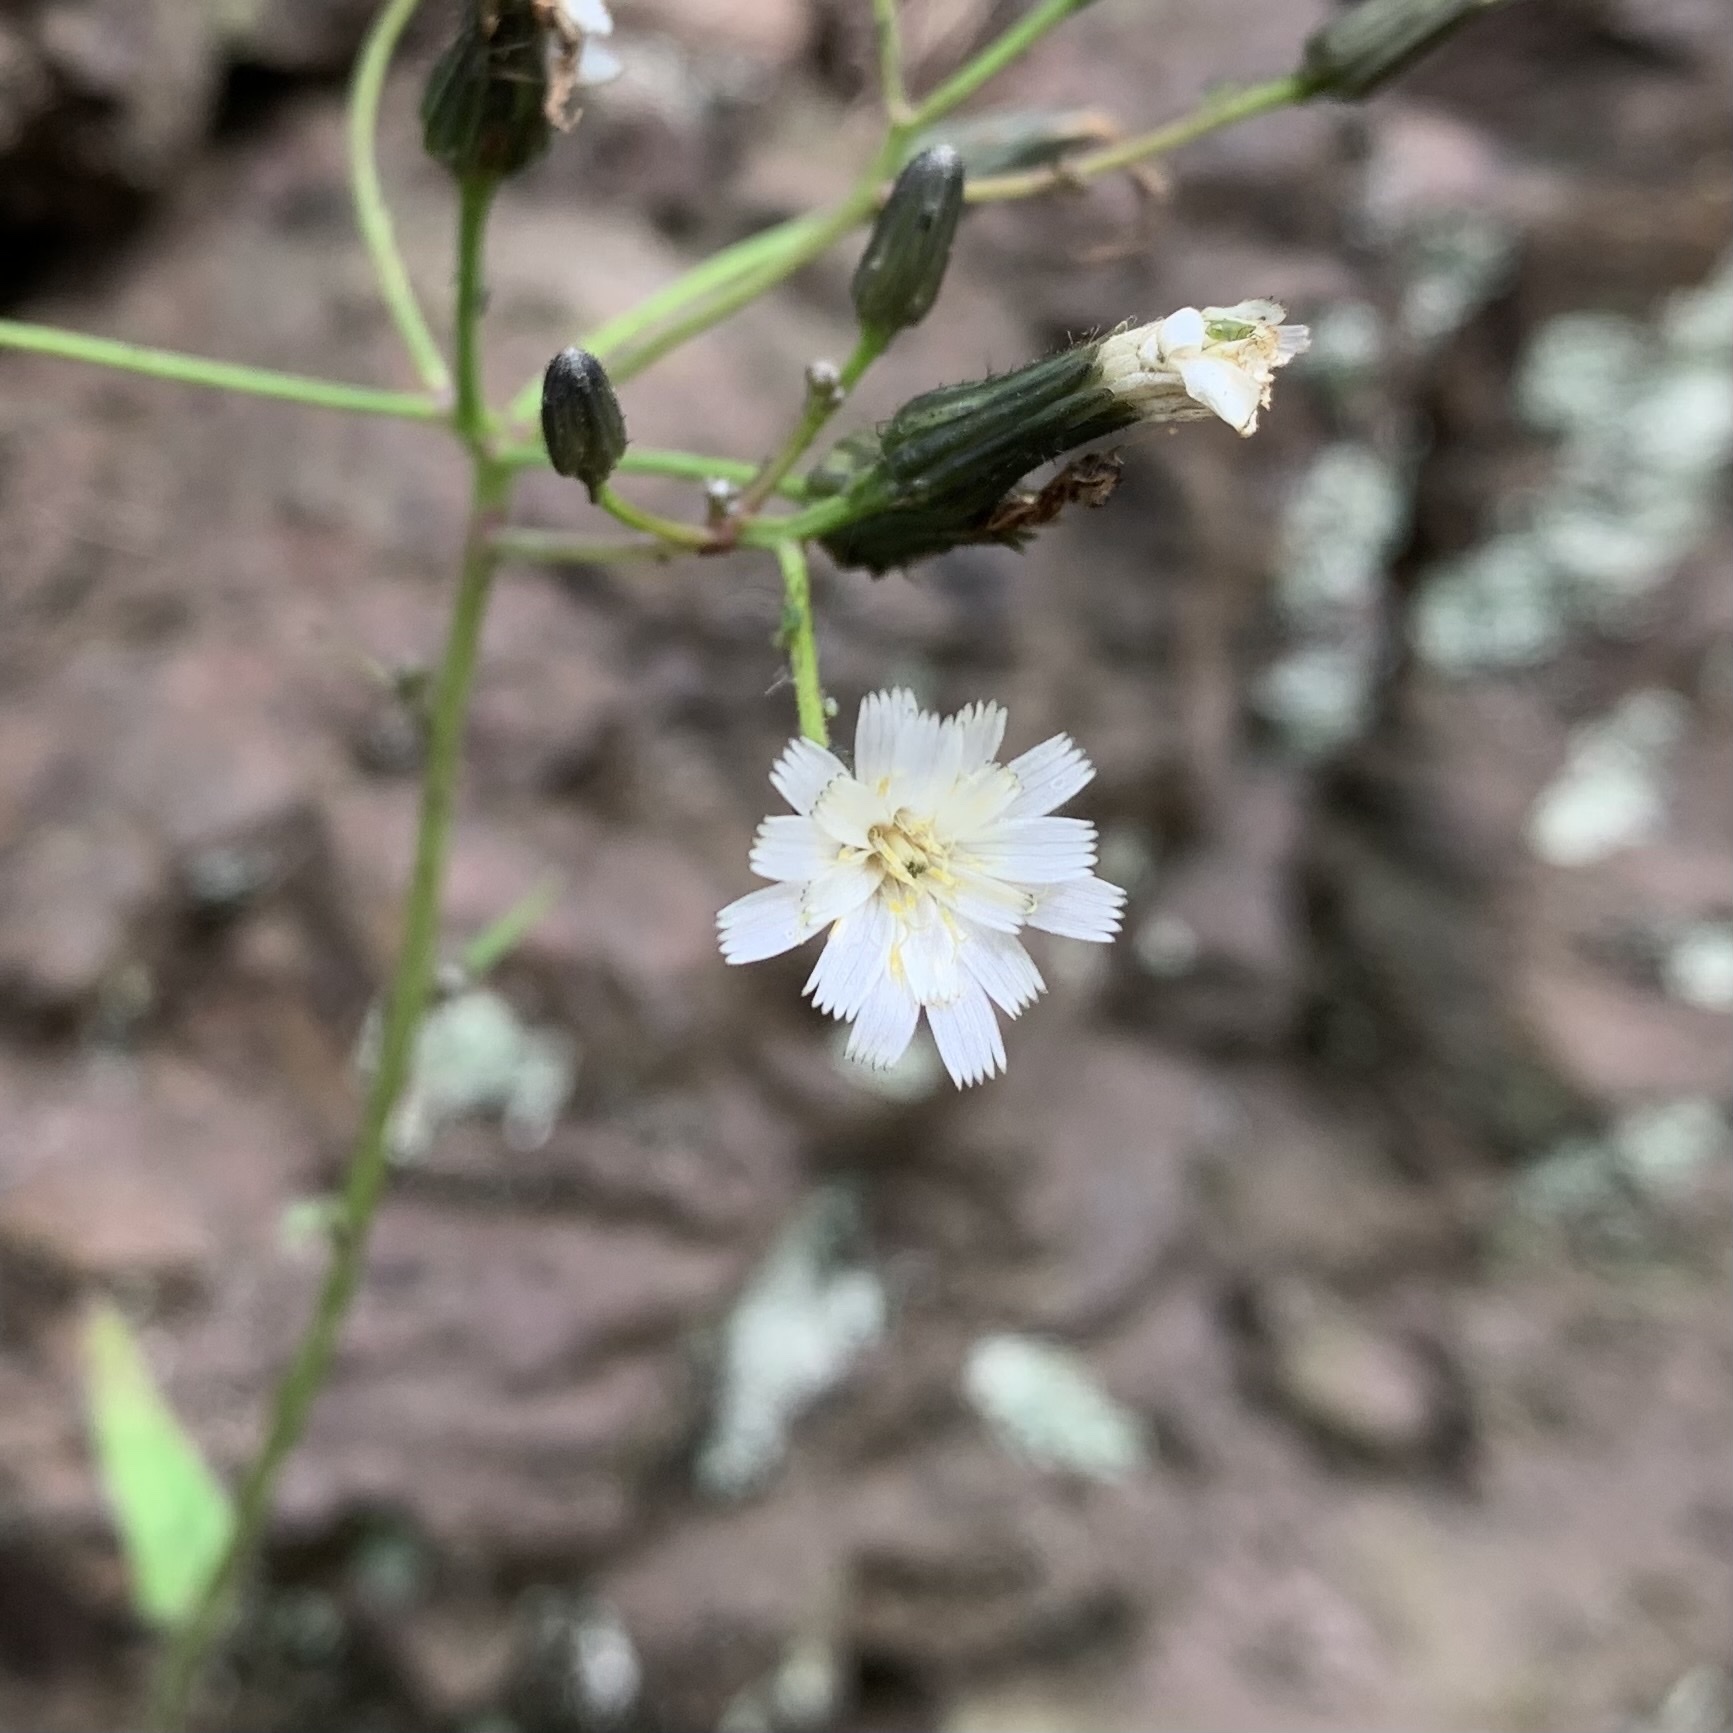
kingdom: Plantae
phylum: Tracheophyta
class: Magnoliopsida
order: Asterales
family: Asteraceae
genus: Hieracium
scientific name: Hieracium albiflorum
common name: White hawkweed
